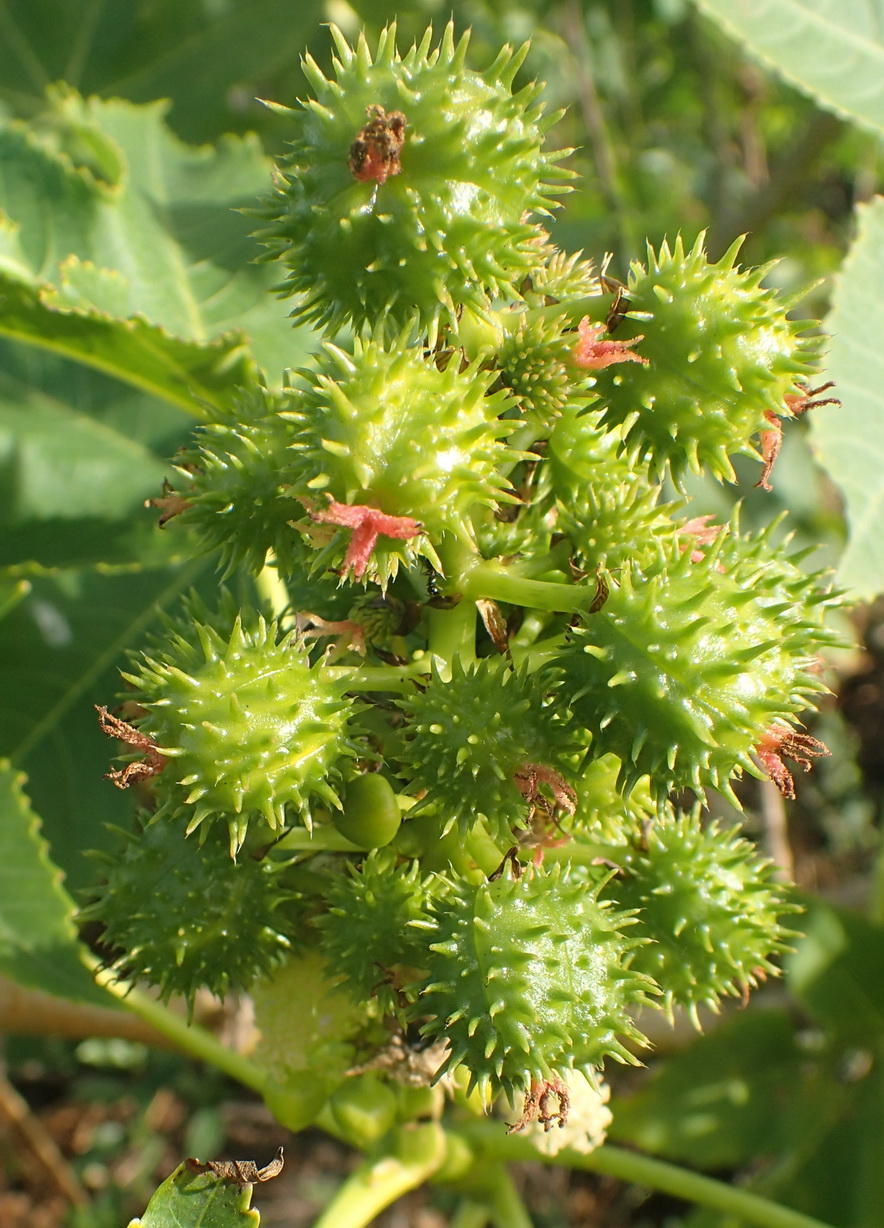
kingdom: Plantae
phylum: Tracheophyta
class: Magnoliopsida
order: Malpighiales
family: Euphorbiaceae
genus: Ricinus
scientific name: Ricinus communis
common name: Castor-oil-plant
